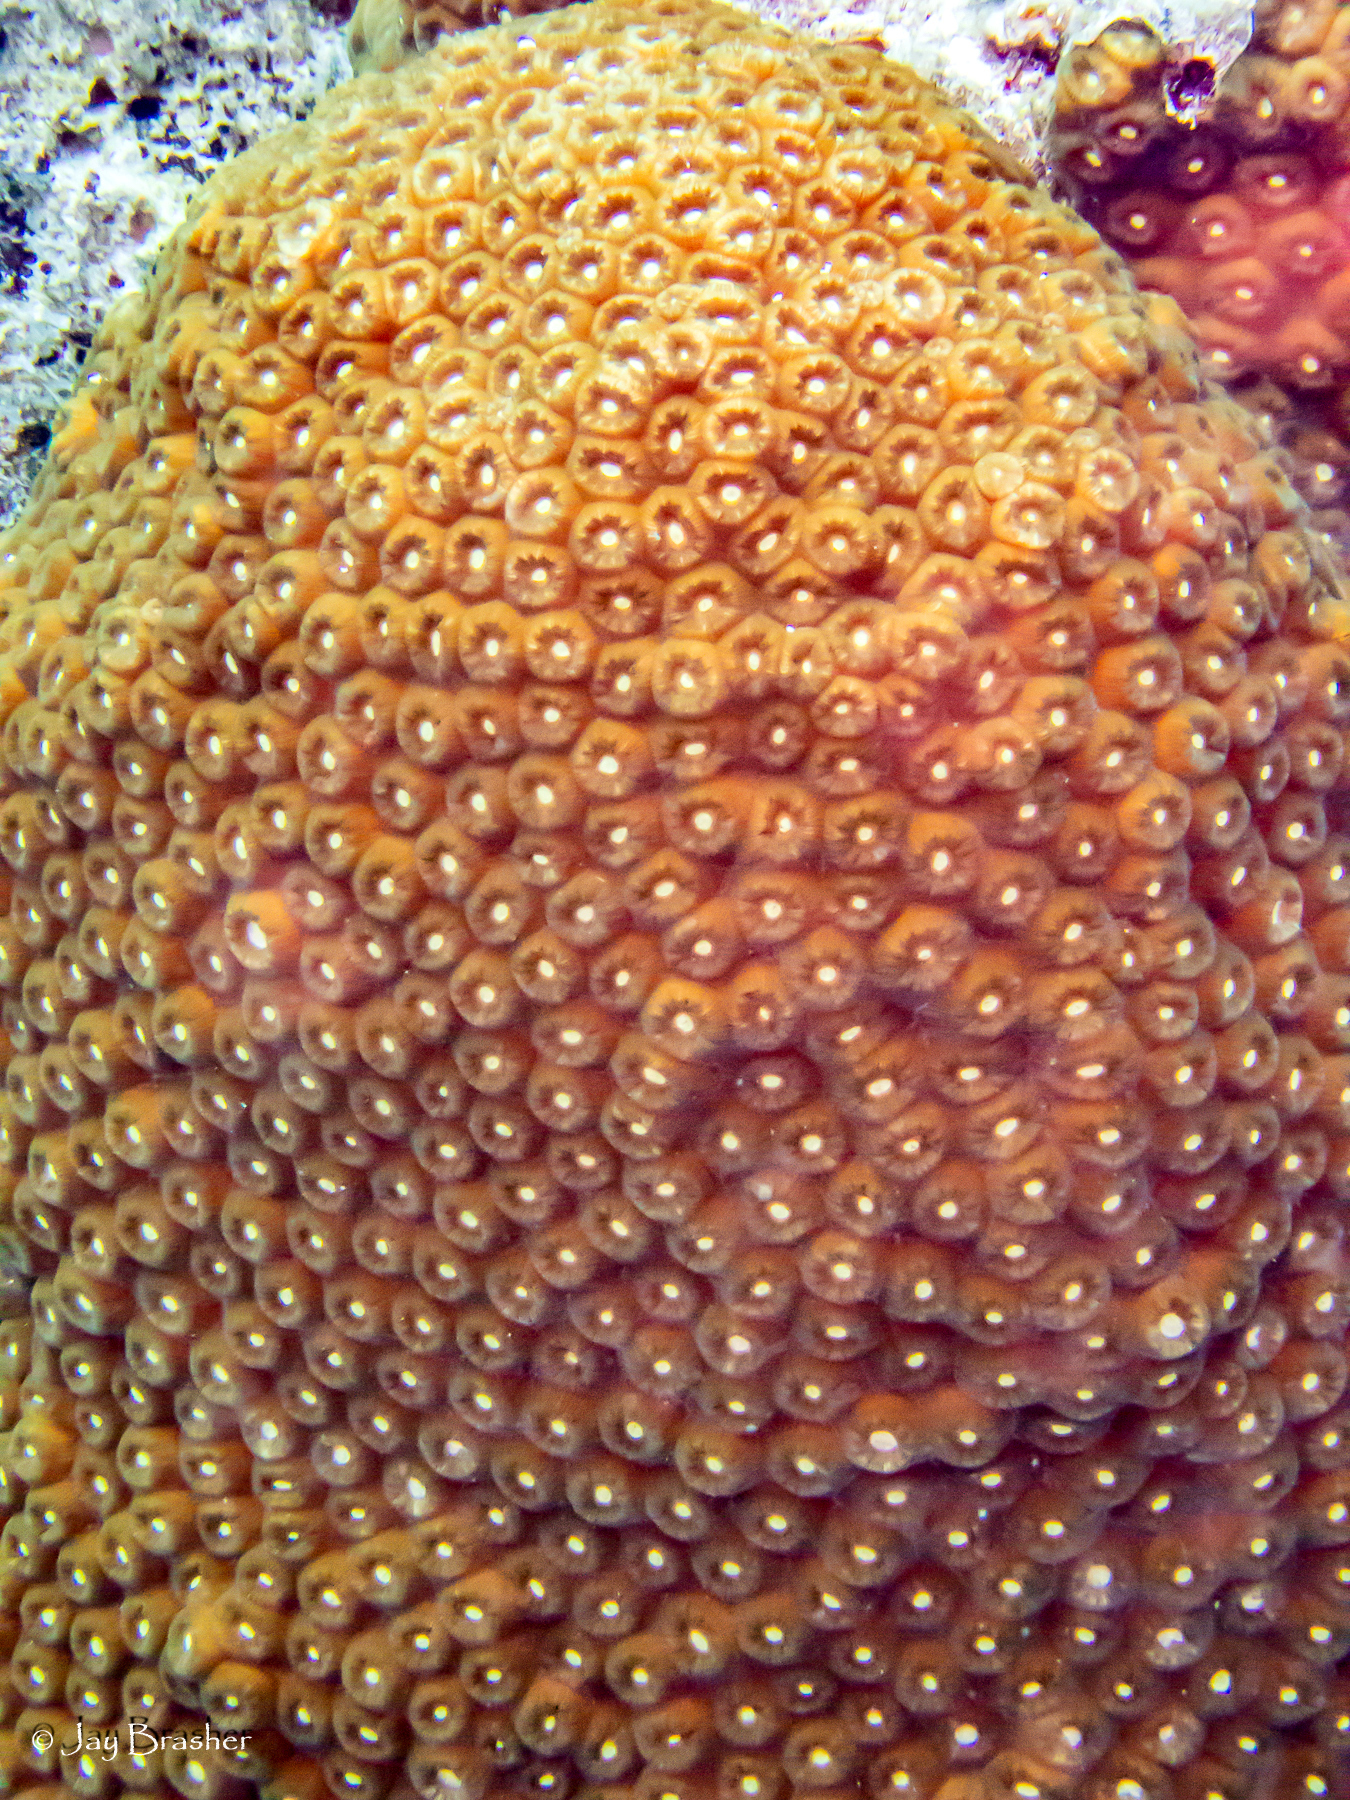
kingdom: Animalia
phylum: Cnidaria
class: Anthozoa
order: Scleractinia
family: Montastraeidae
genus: Montastraea
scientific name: Montastraea cavernosa
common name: Great star coral
